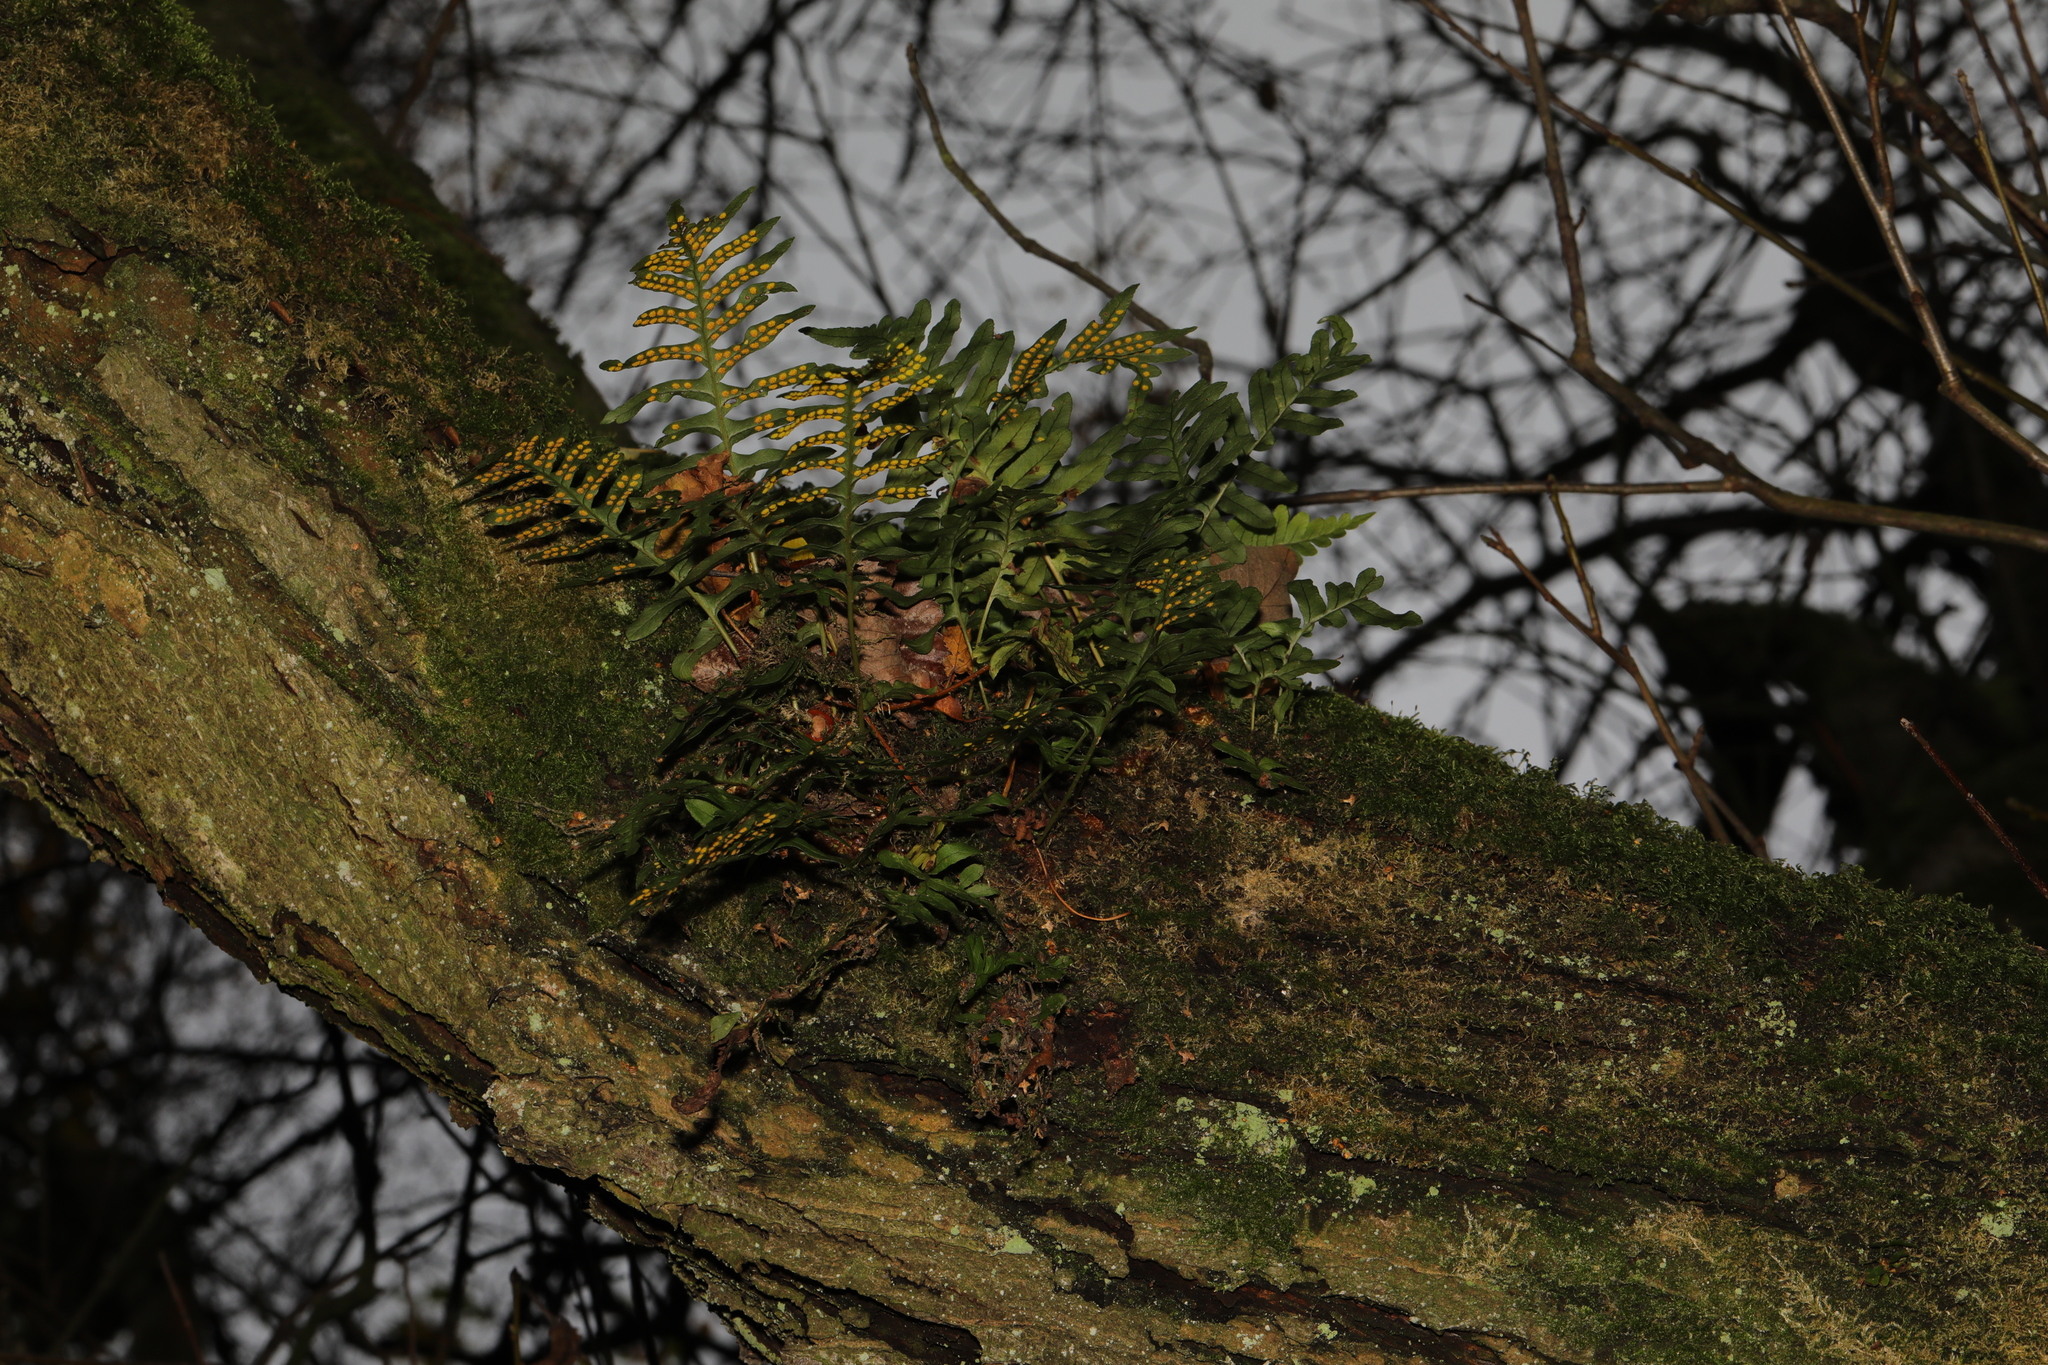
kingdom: Plantae
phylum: Tracheophyta
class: Polypodiopsida
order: Polypodiales
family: Polypodiaceae
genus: Polypodium
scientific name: Polypodium vulgare
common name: Common polypody
